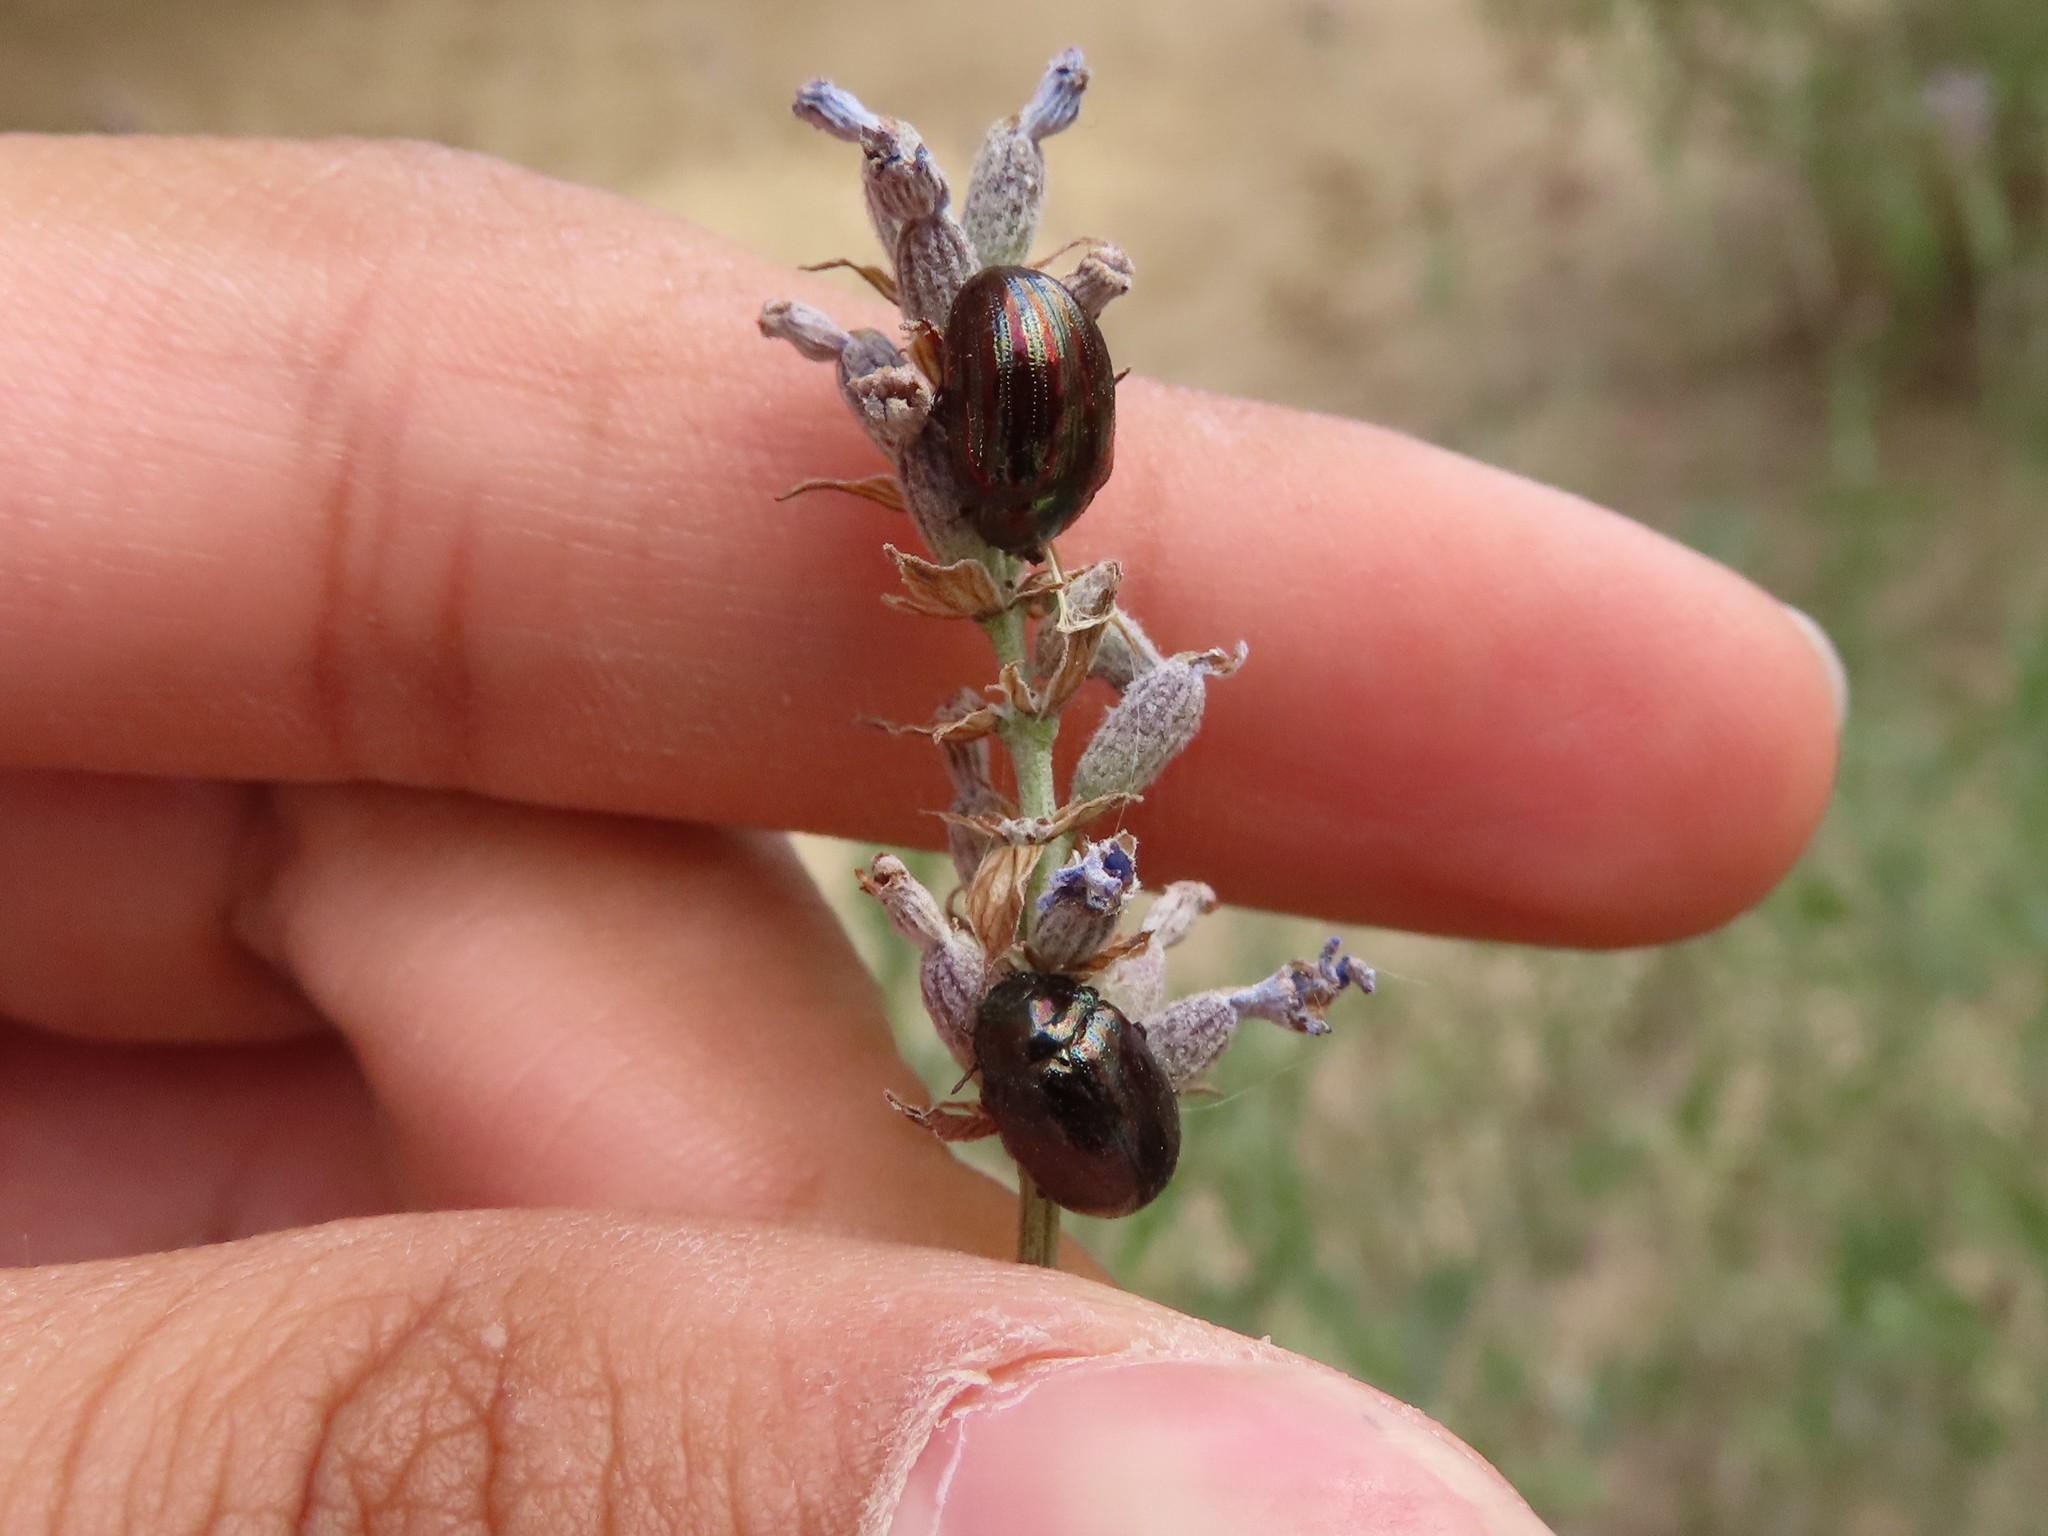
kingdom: Animalia
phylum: Arthropoda
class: Insecta
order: Coleoptera
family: Chrysomelidae
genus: Chrysolina
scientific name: Chrysolina americana
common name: Rosemary beetle
